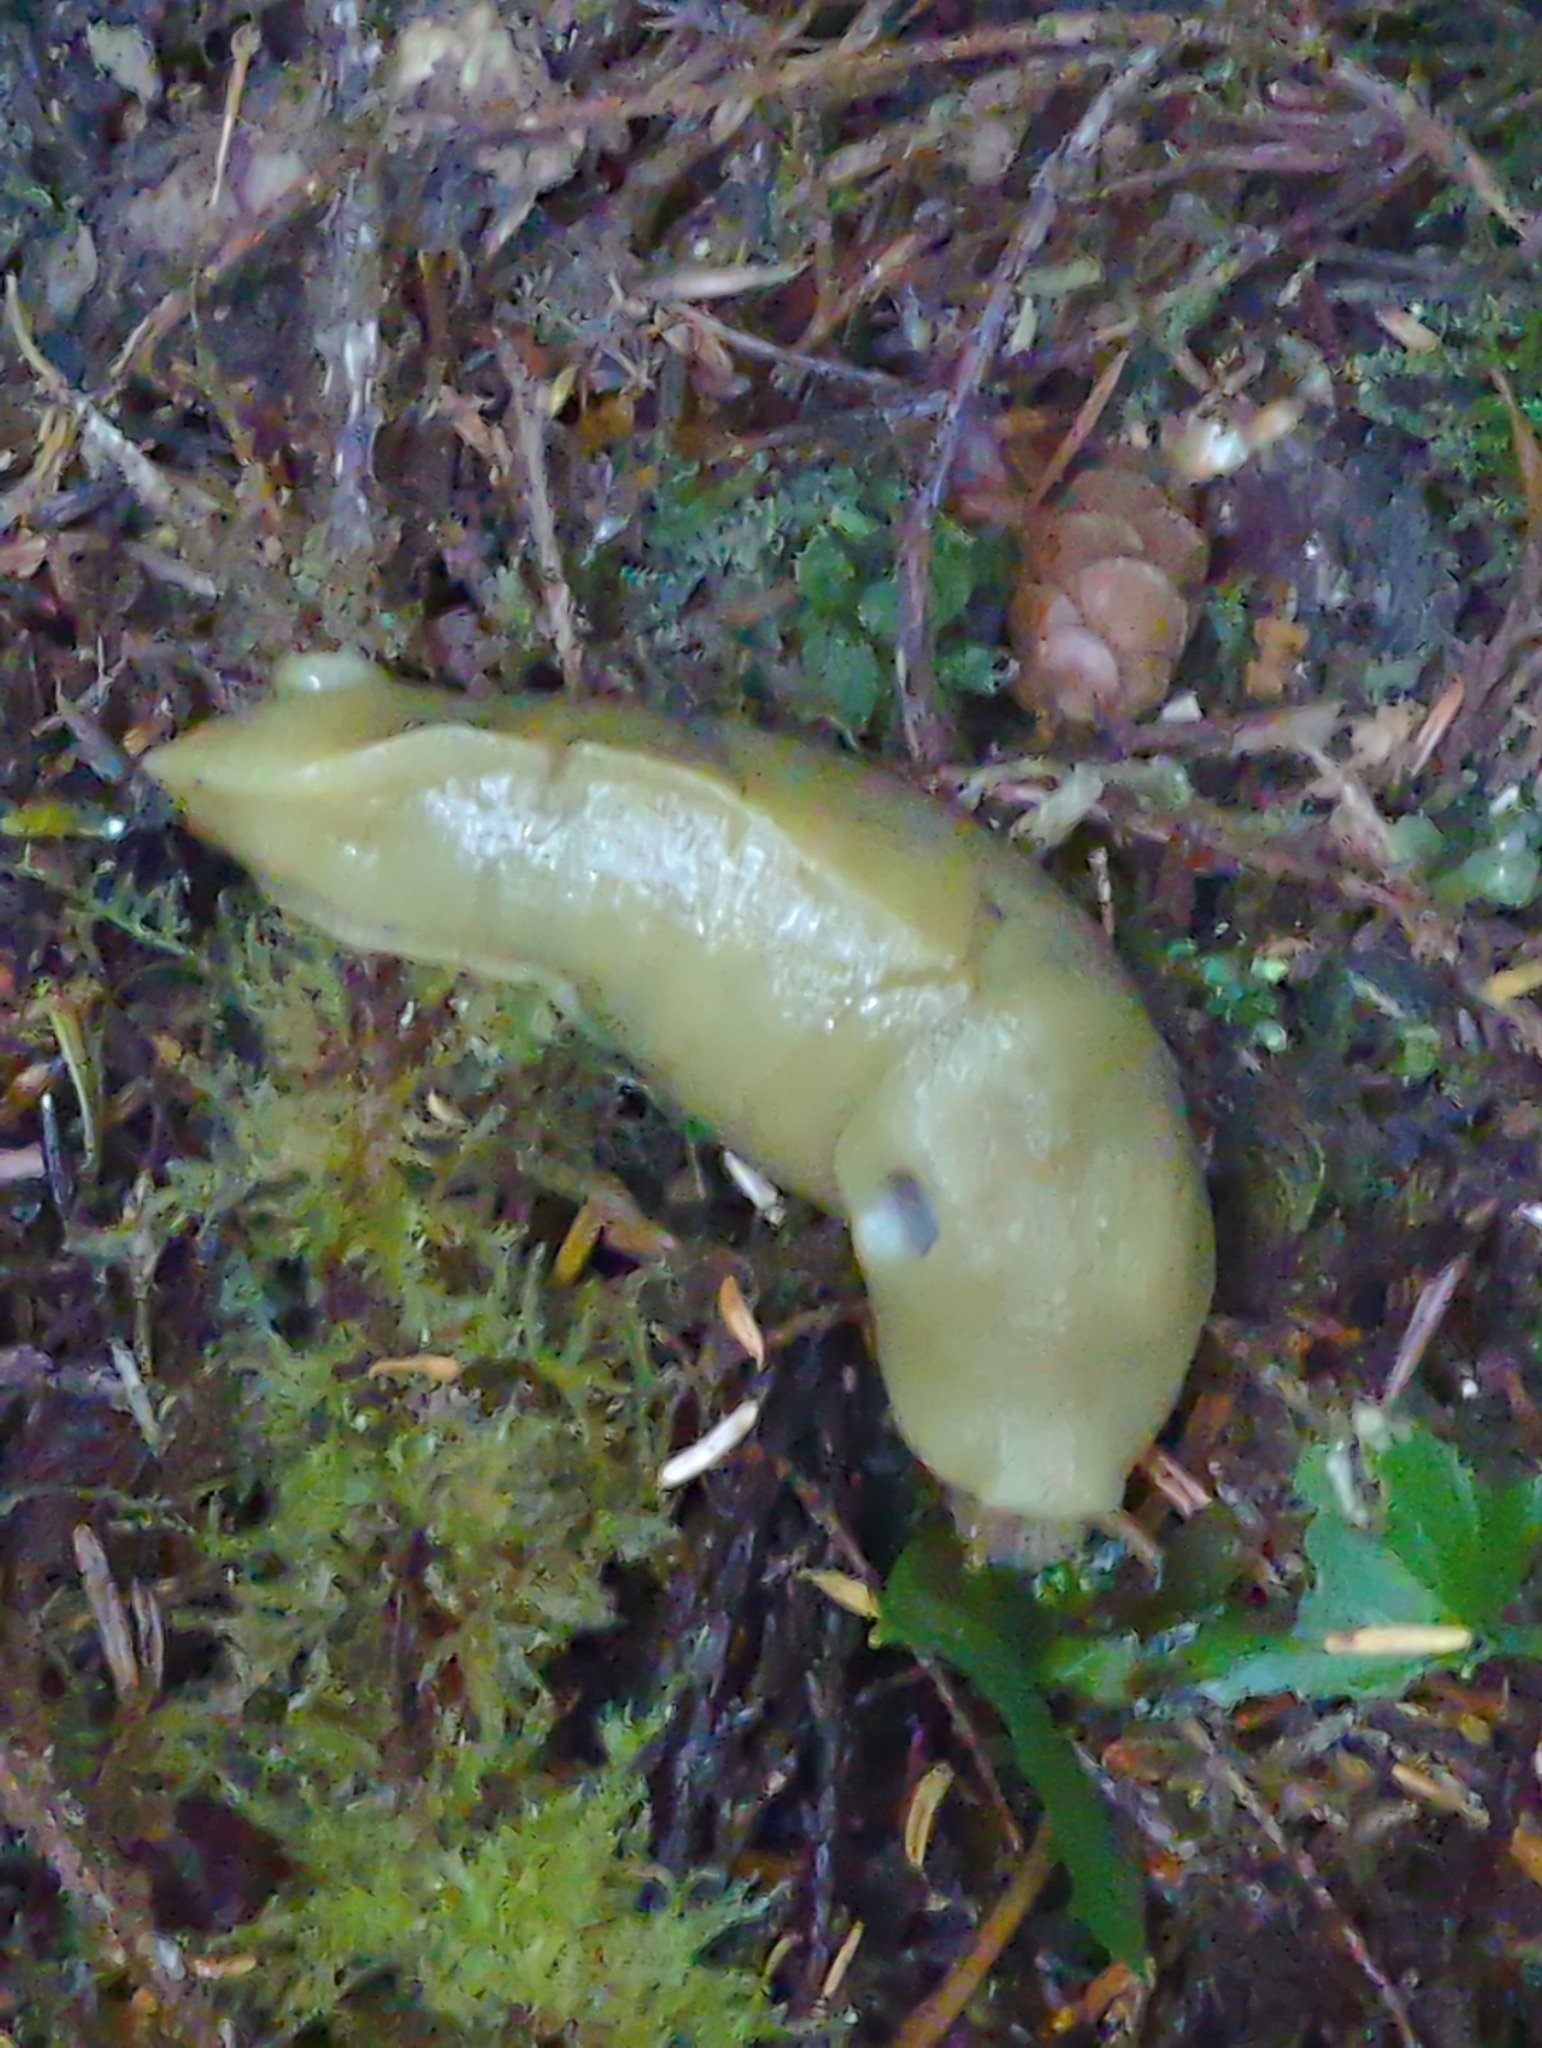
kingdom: Animalia
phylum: Mollusca
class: Gastropoda
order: Stylommatophora
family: Ariolimacidae
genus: Ariolimax
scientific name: Ariolimax columbianus
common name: Pacific banana slug
